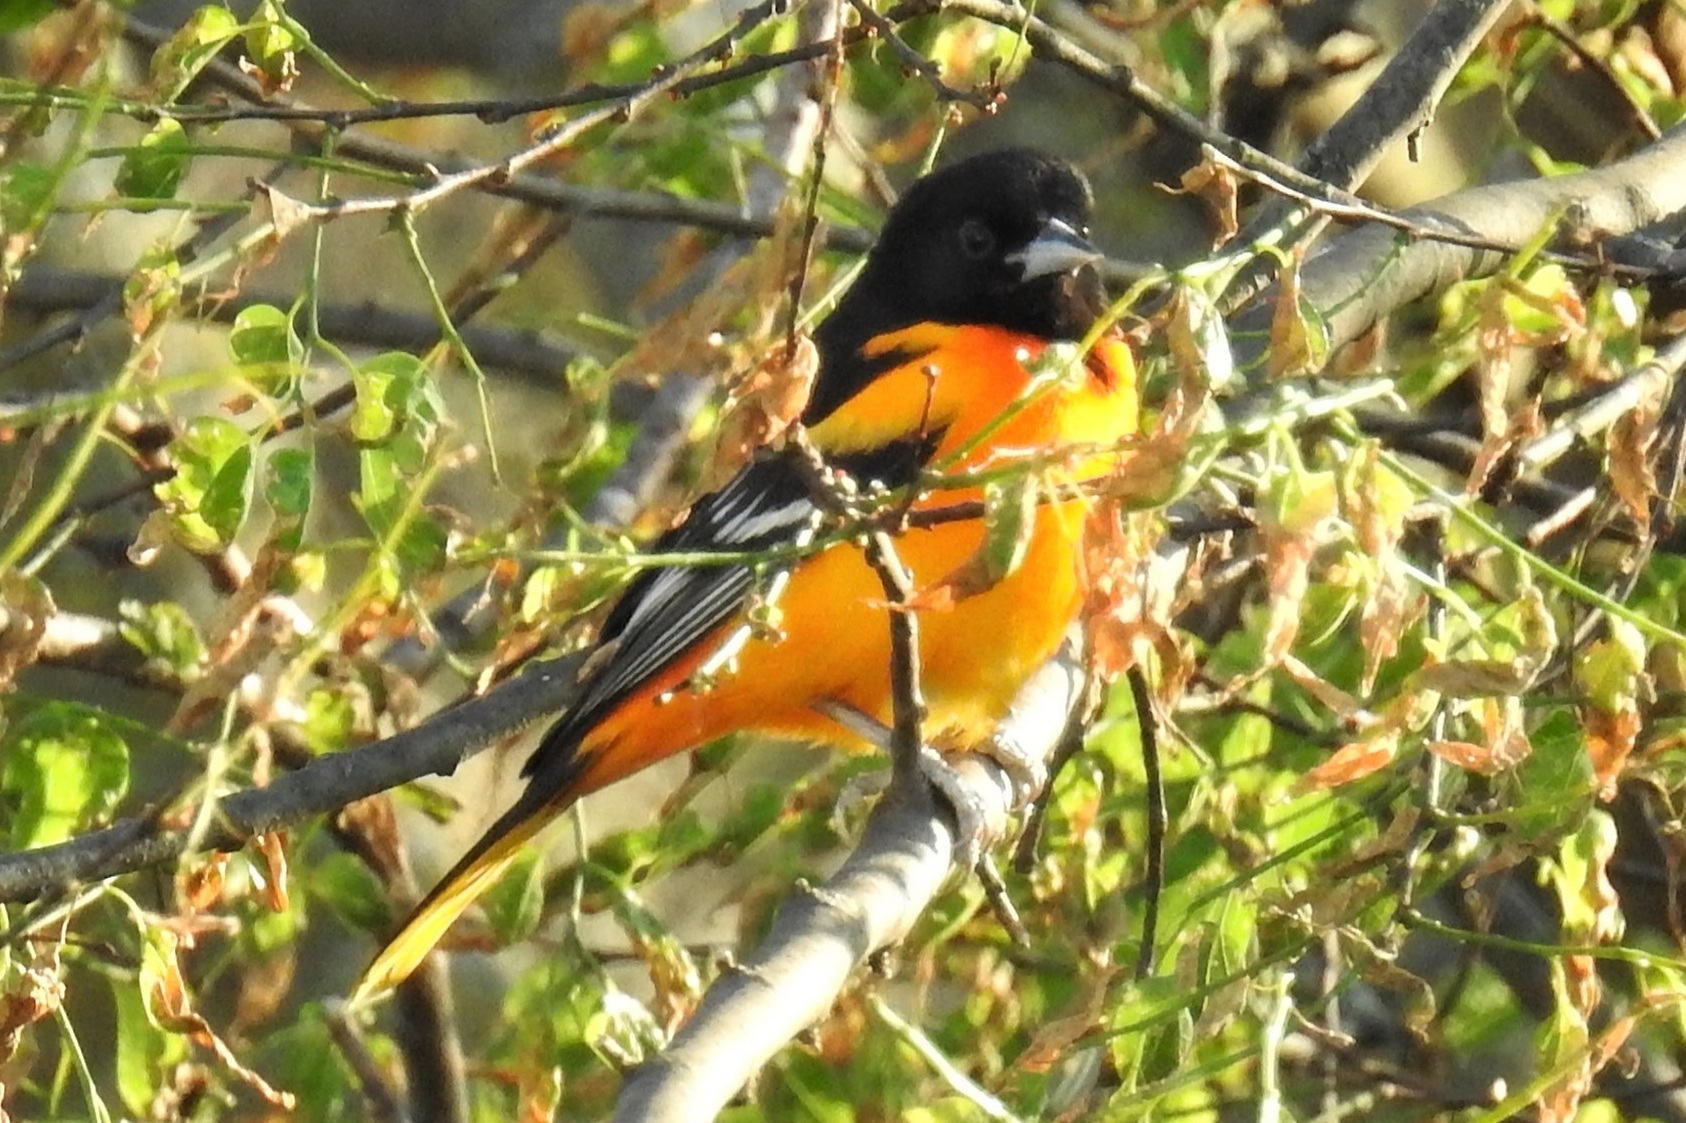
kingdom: Animalia
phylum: Chordata
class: Aves
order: Passeriformes
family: Icteridae
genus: Icterus
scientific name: Icterus galbula
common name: Baltimore oriole
